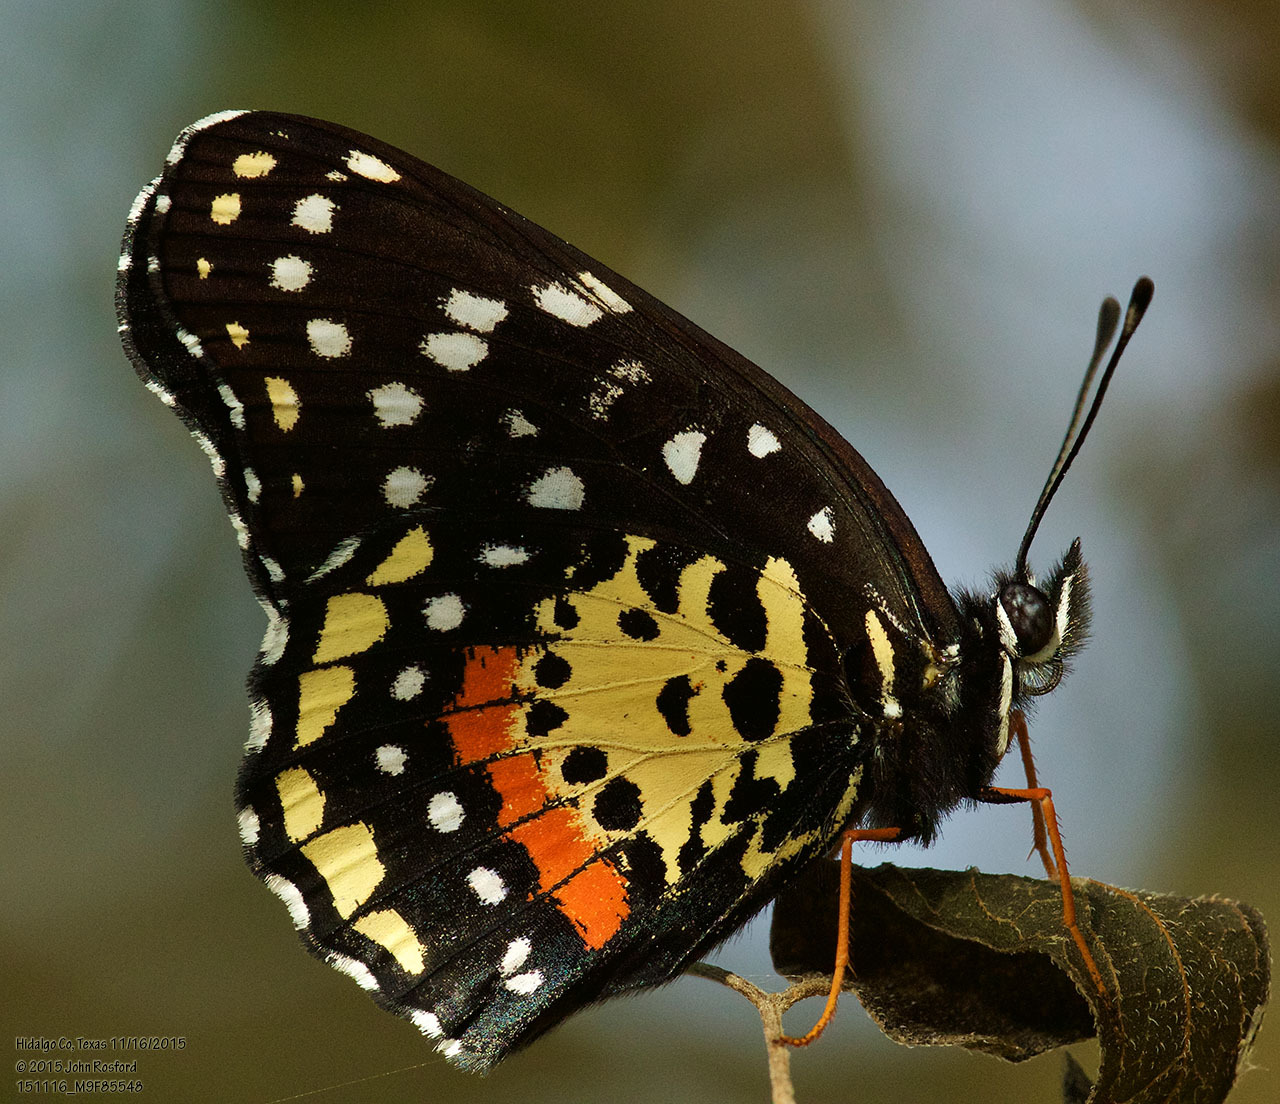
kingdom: Animalia
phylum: Arthropoda
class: Insecta
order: Lepidoptera
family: Nymphalidae
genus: Chlosyne
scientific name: Chlosyne janais
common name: Crimson patch
